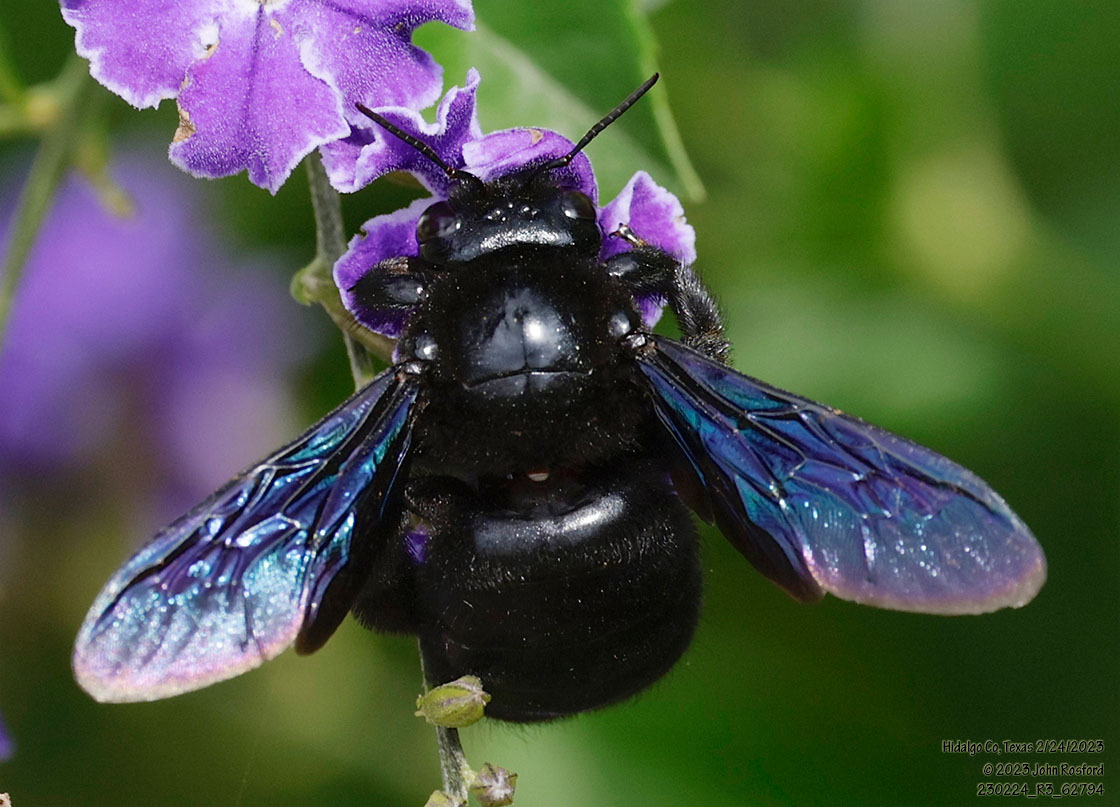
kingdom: Animalia
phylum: Arthropoda
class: Insecta
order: Hymenoptera
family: Apidae
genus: Xylocopa
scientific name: Xylocopa griswoldi
